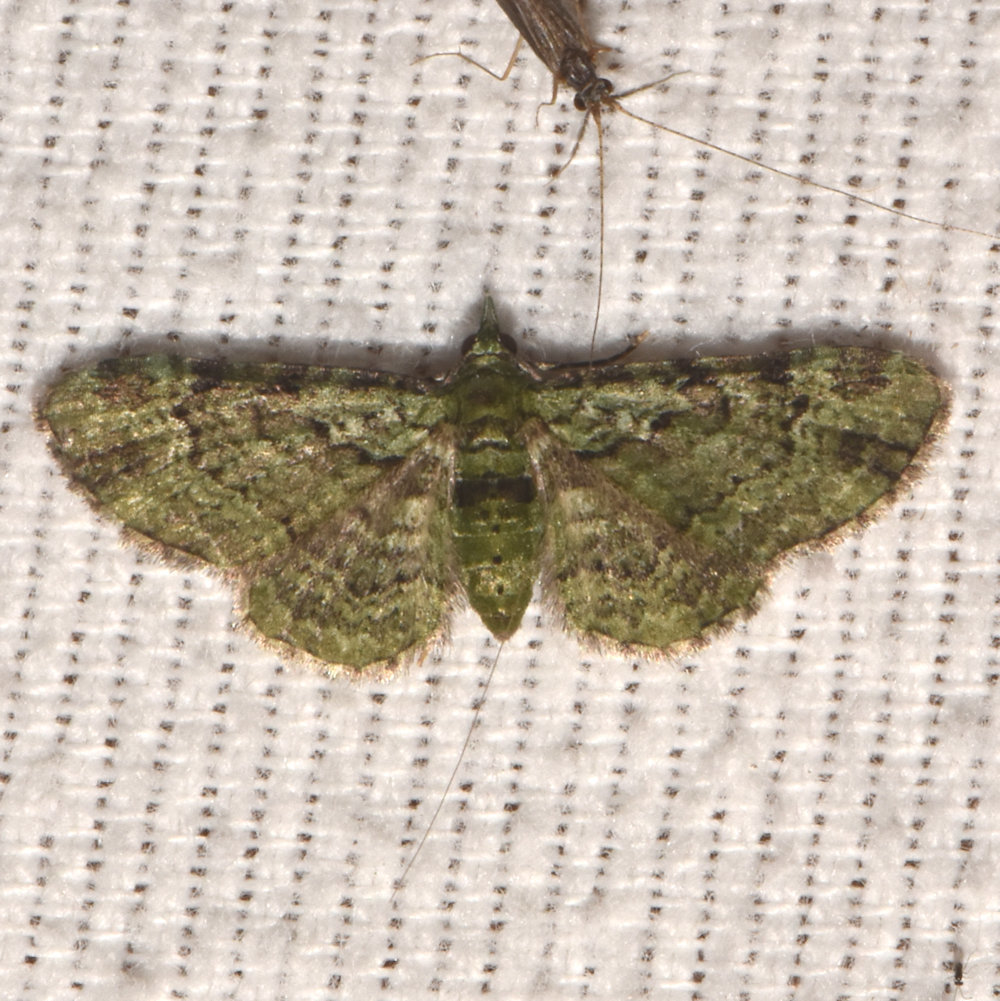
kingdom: Animalia
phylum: Arthropoda
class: Insecta
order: Lepidoptera
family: Geometridae
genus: Pasiphila
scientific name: Pasiphila rectangulata
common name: Green pug
